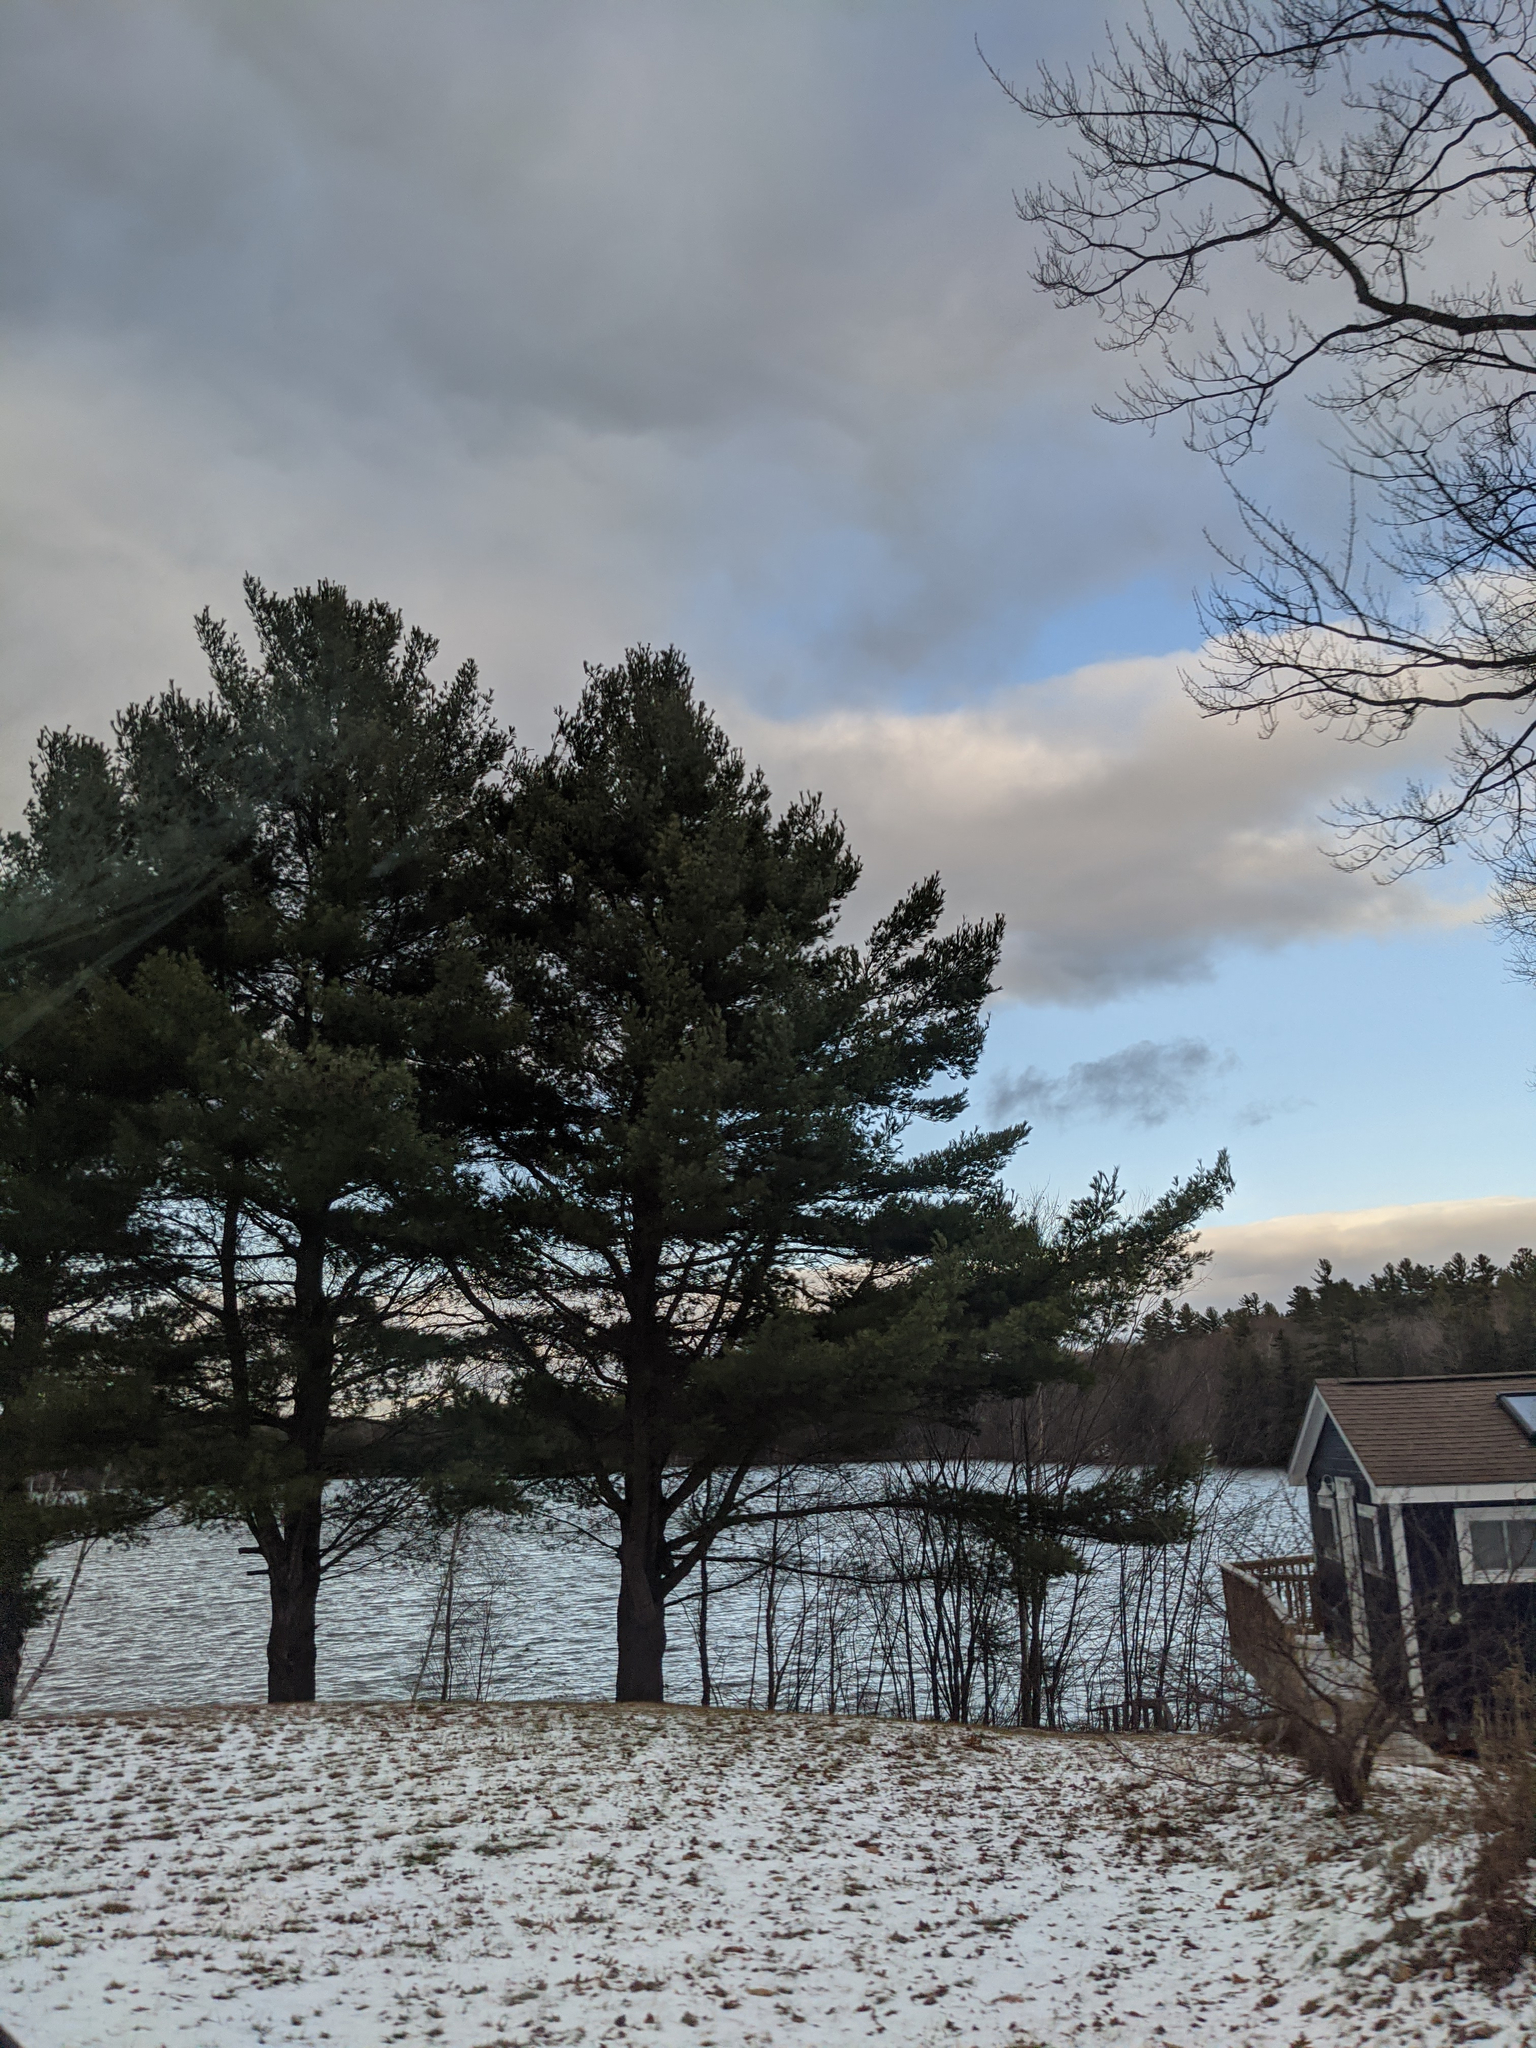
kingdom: Plantae
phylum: Tracheophyta
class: Pinopsida
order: Pinales
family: Pinaceae
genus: Pinus
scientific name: Pinus strobus
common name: Weymouth pine
